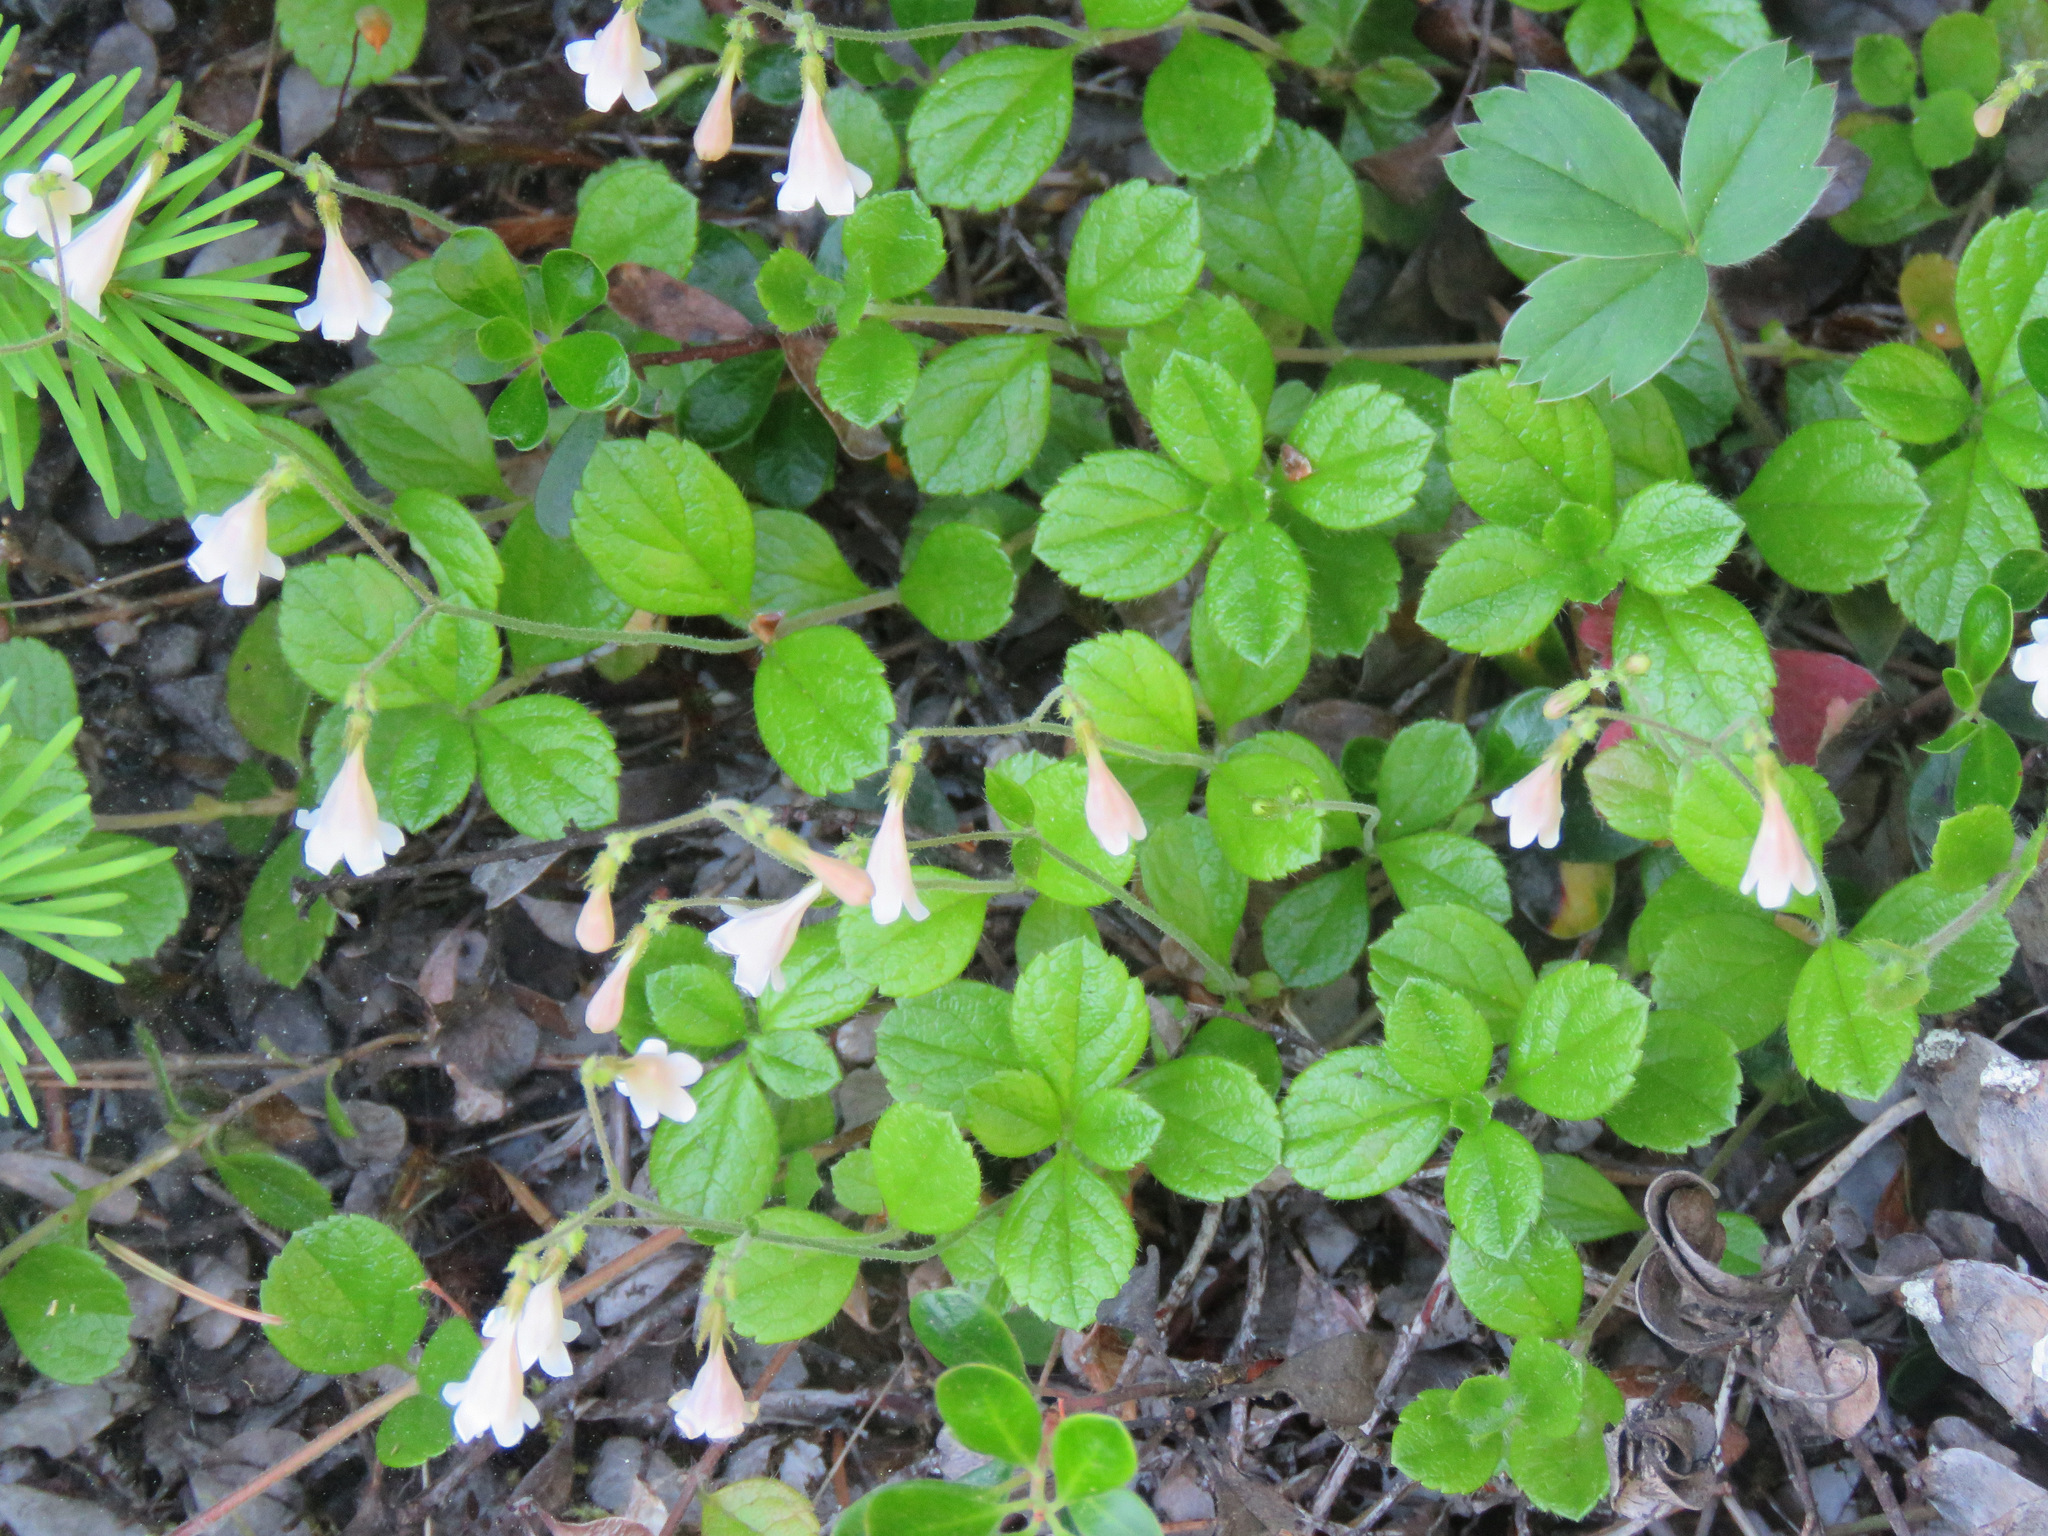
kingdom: Plantae
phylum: Tracheophyta
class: Magnoliopsida
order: Dipsacales
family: Caprifoliaceae
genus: Linnaea
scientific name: Linnaea borealis
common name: Twinflower
